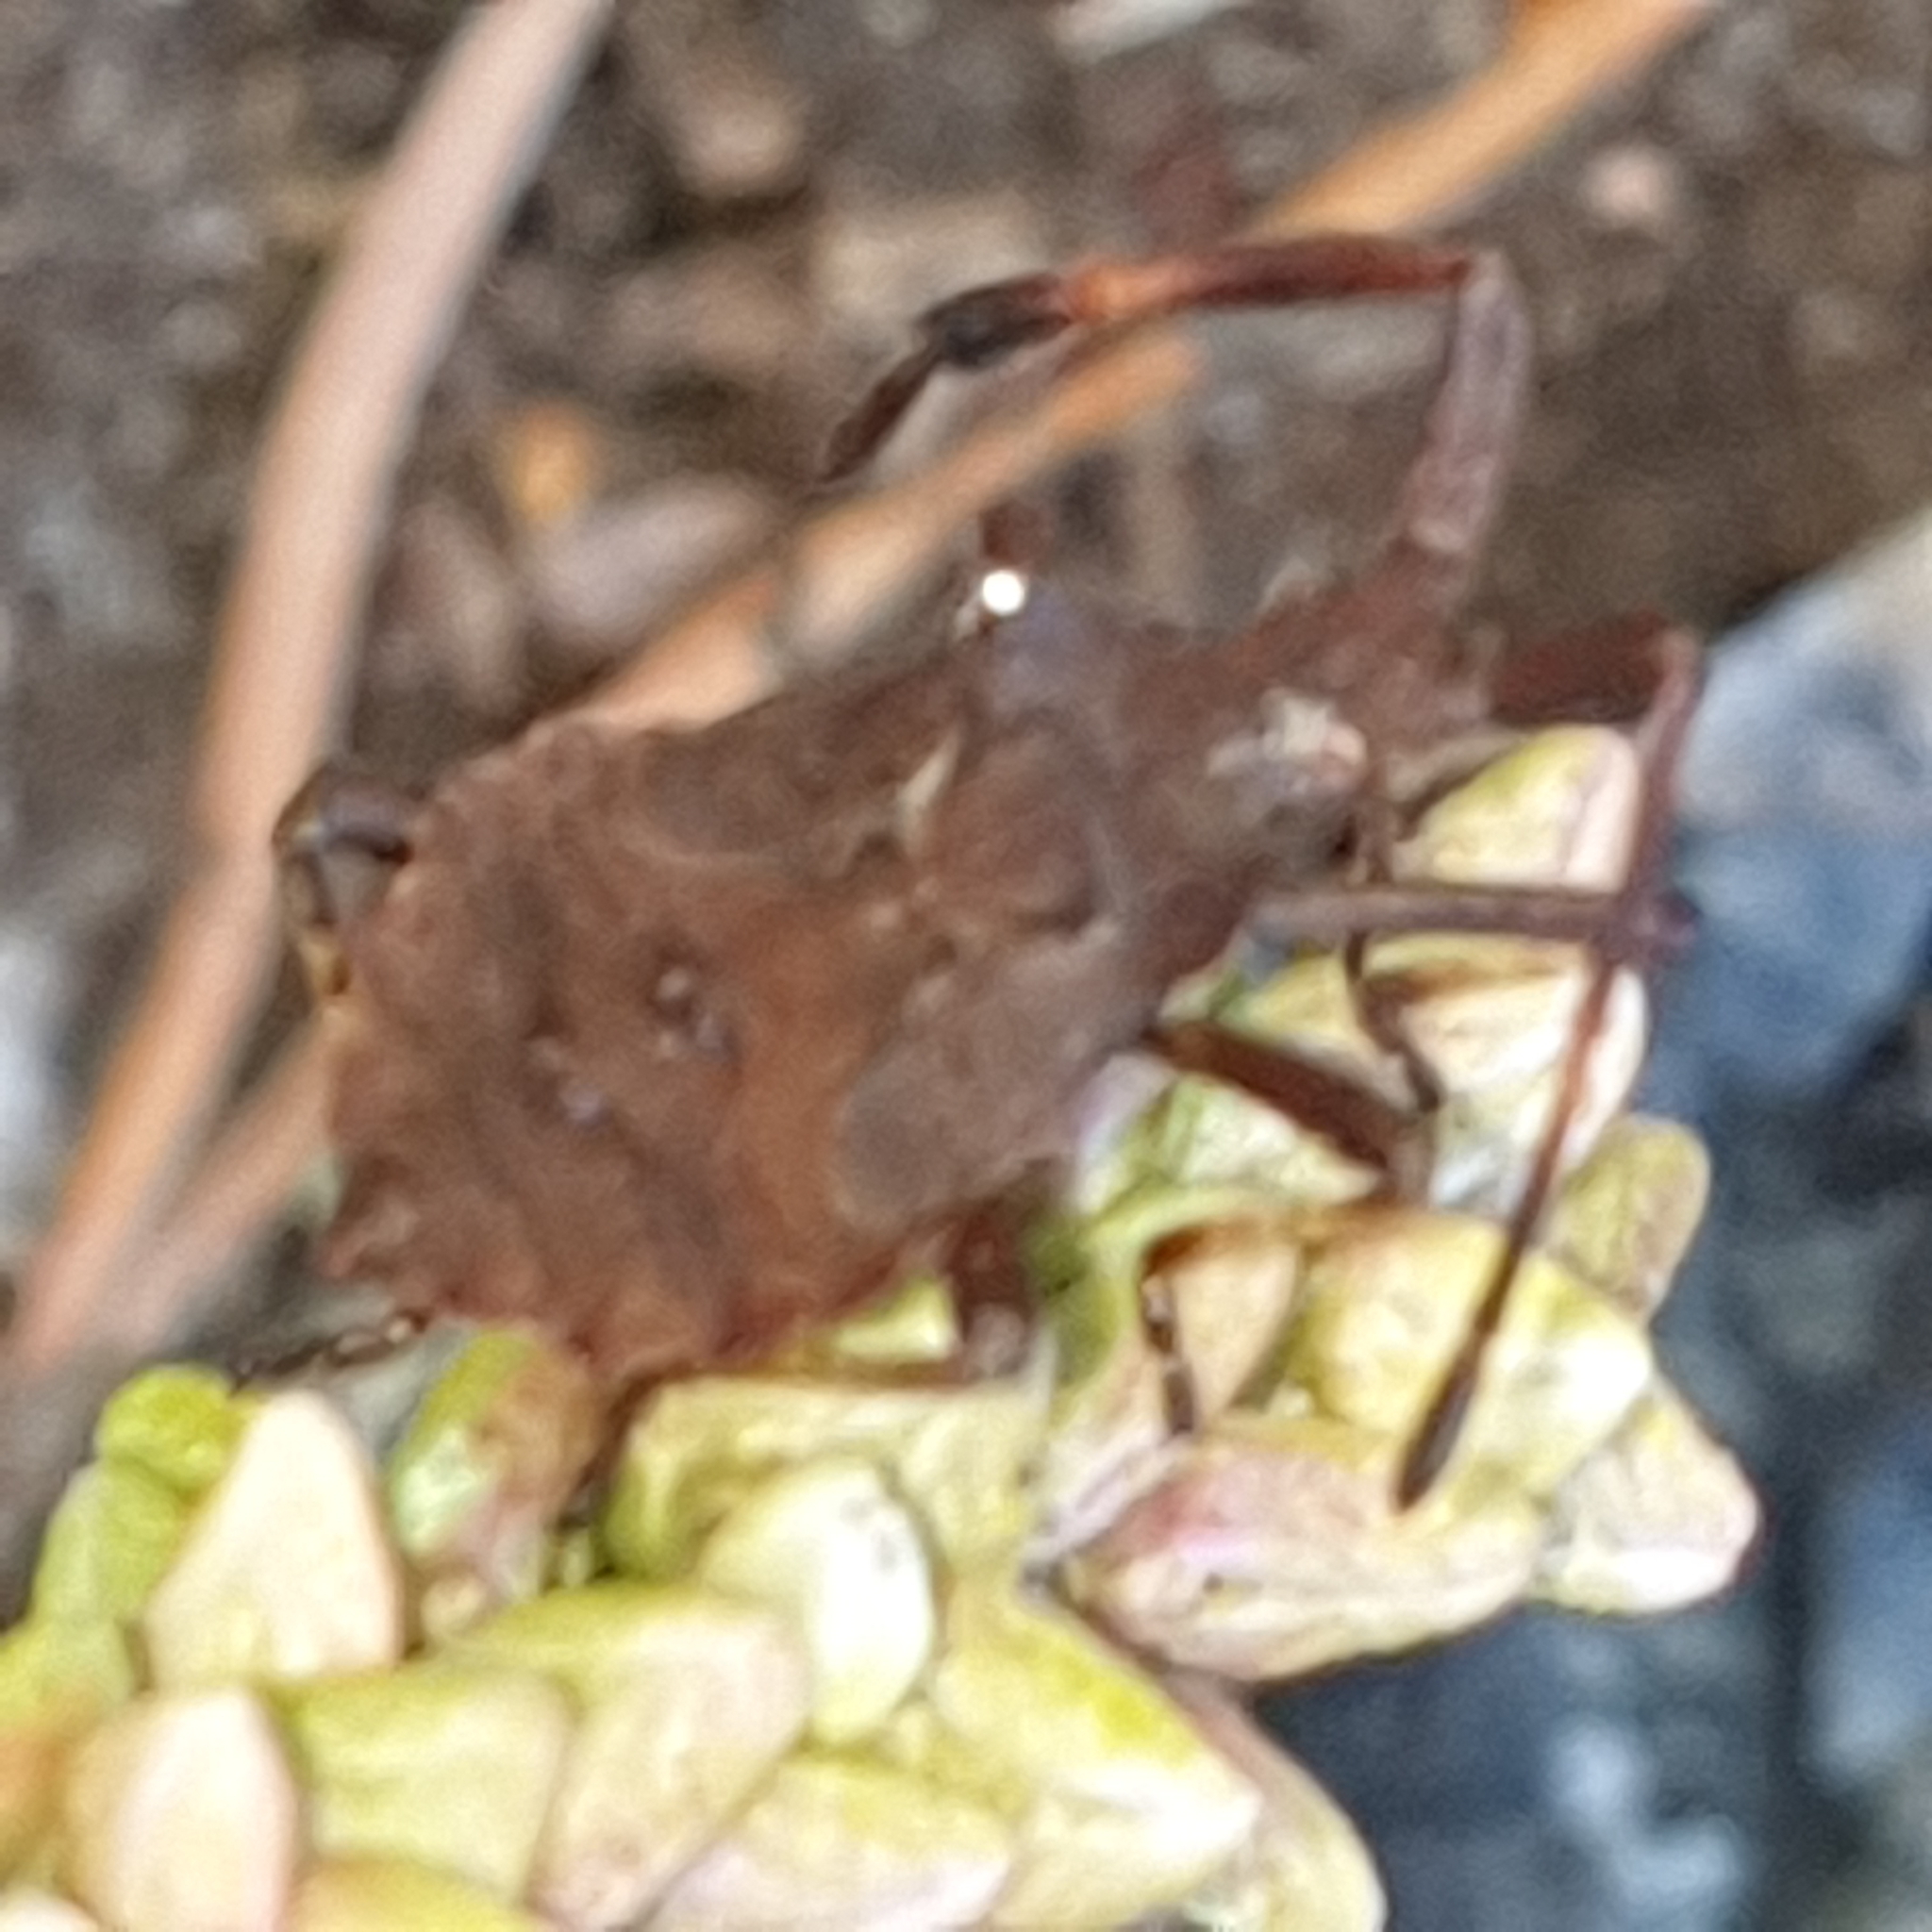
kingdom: Animalia
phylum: Arthropoda
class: Insecta
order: Hemiptera
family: Coreidae
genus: Coreus
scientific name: Coreus marginatus
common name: Dock bug
